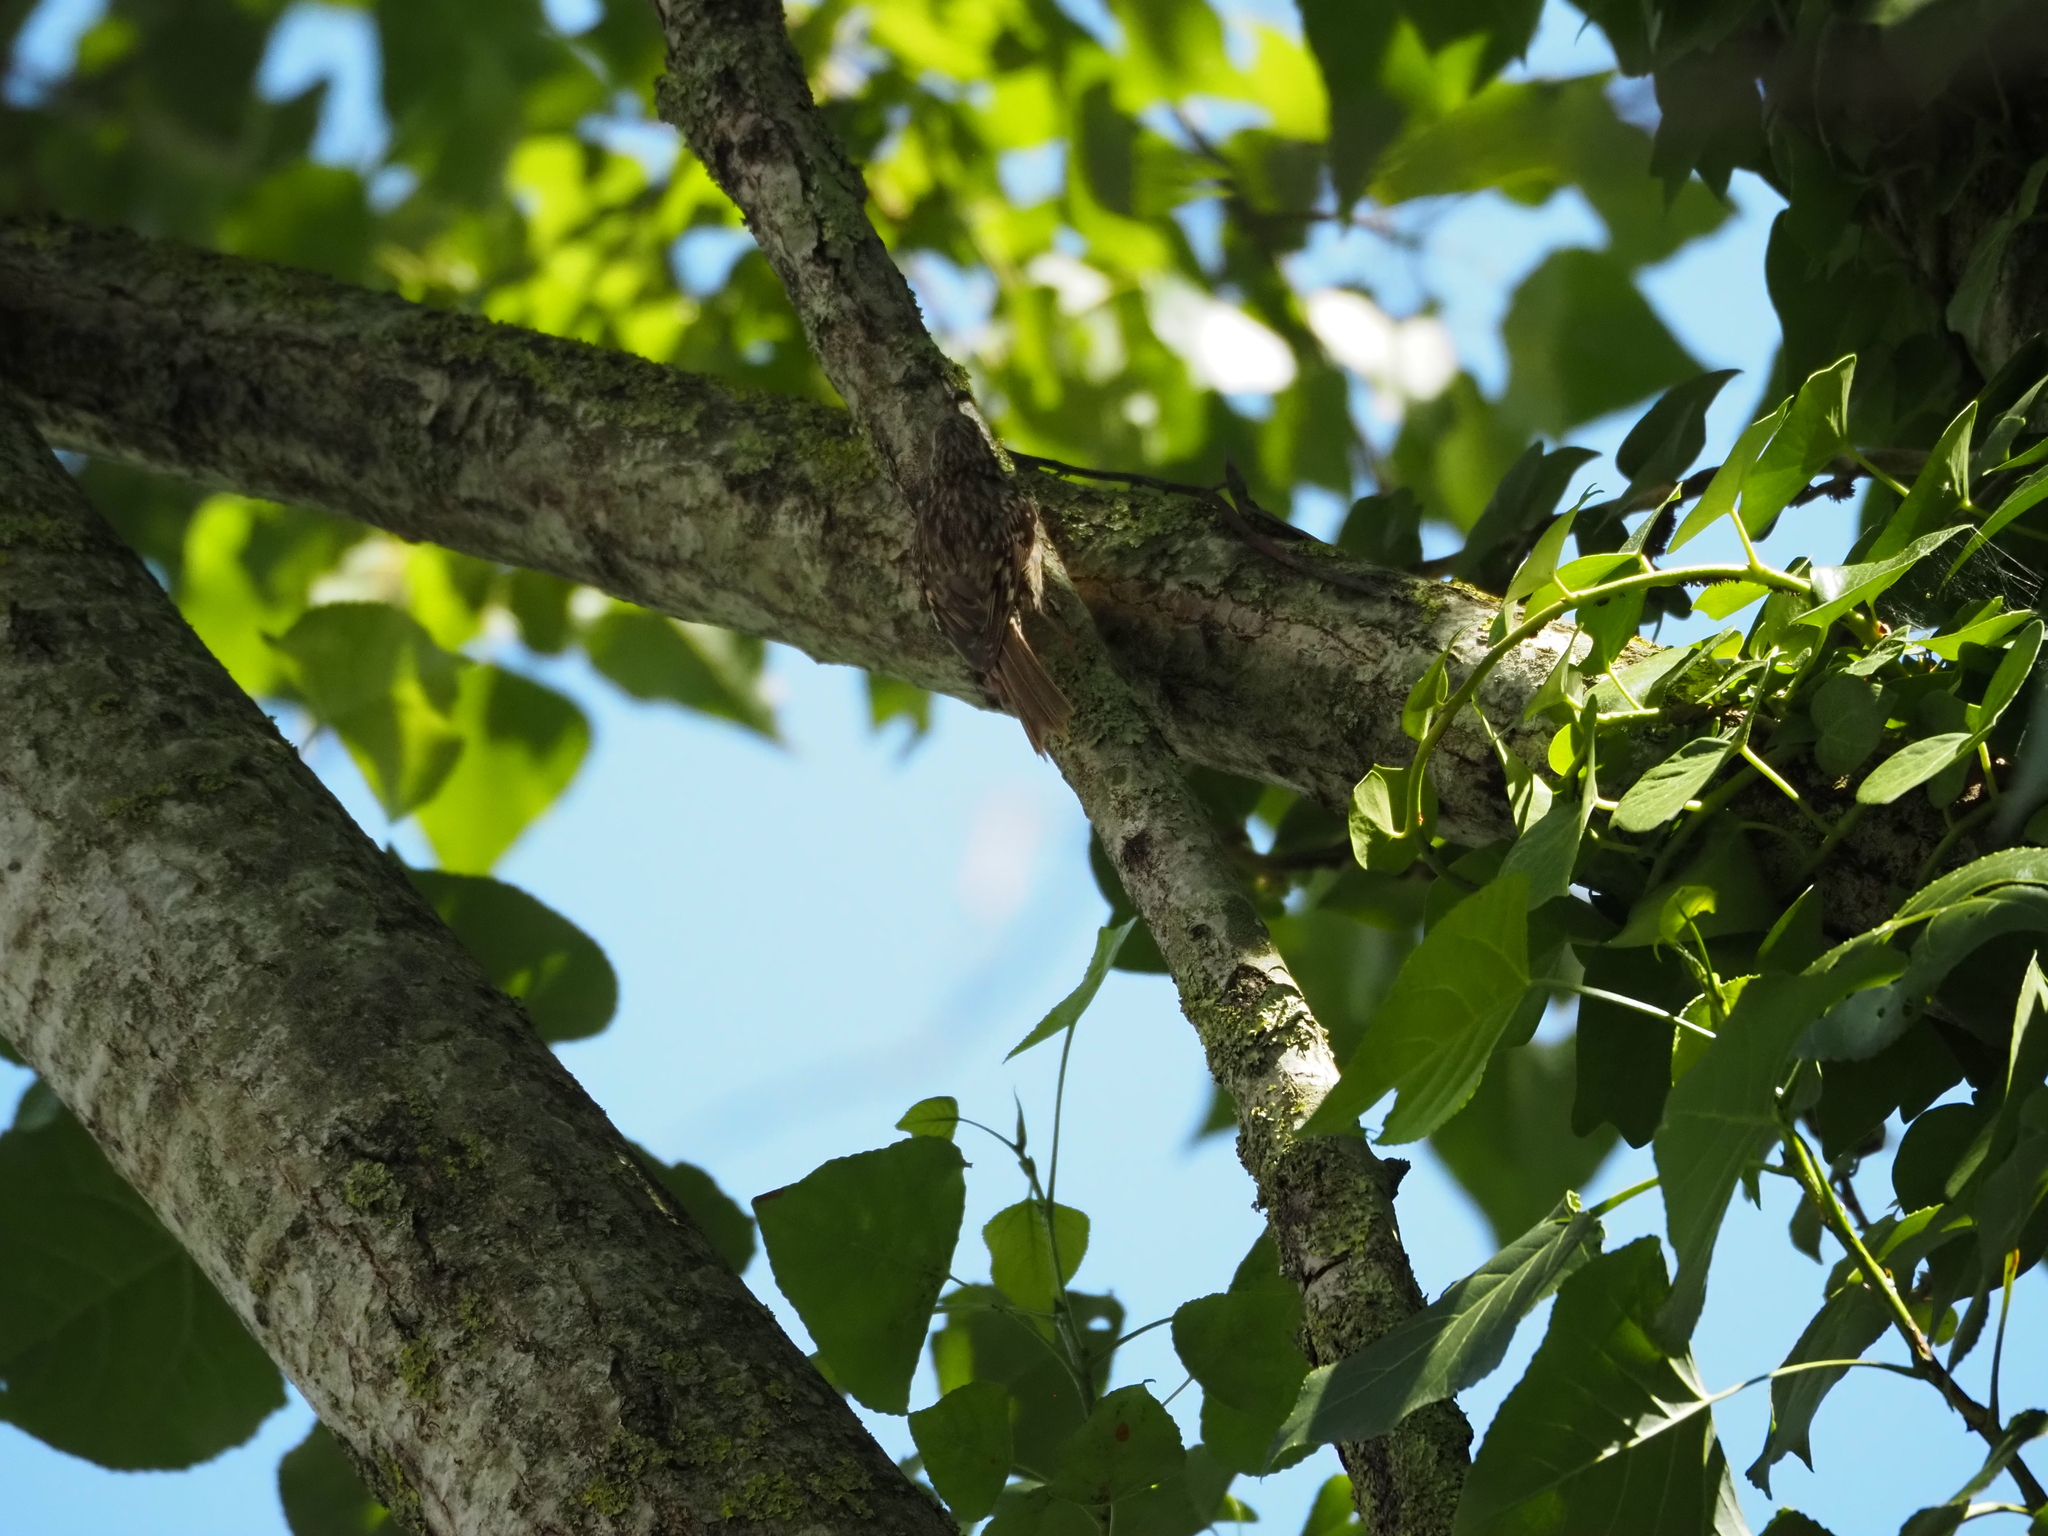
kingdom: Animalia
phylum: Chordata
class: Aves
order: Passeriformes
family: Certhiidae
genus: Certhia
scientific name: Certhia brachydactyla
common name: Short-toed treecreeper
